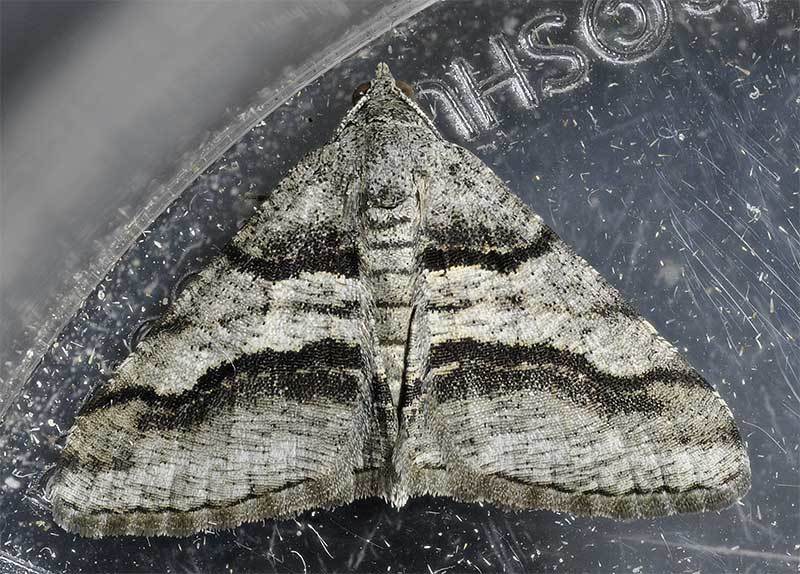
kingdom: Animalia
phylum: Arthropoda
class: Insecta
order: Lepidoptera
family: Geometridae
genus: Digrammia
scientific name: Digrammia continuata
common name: Curve-lined angle
